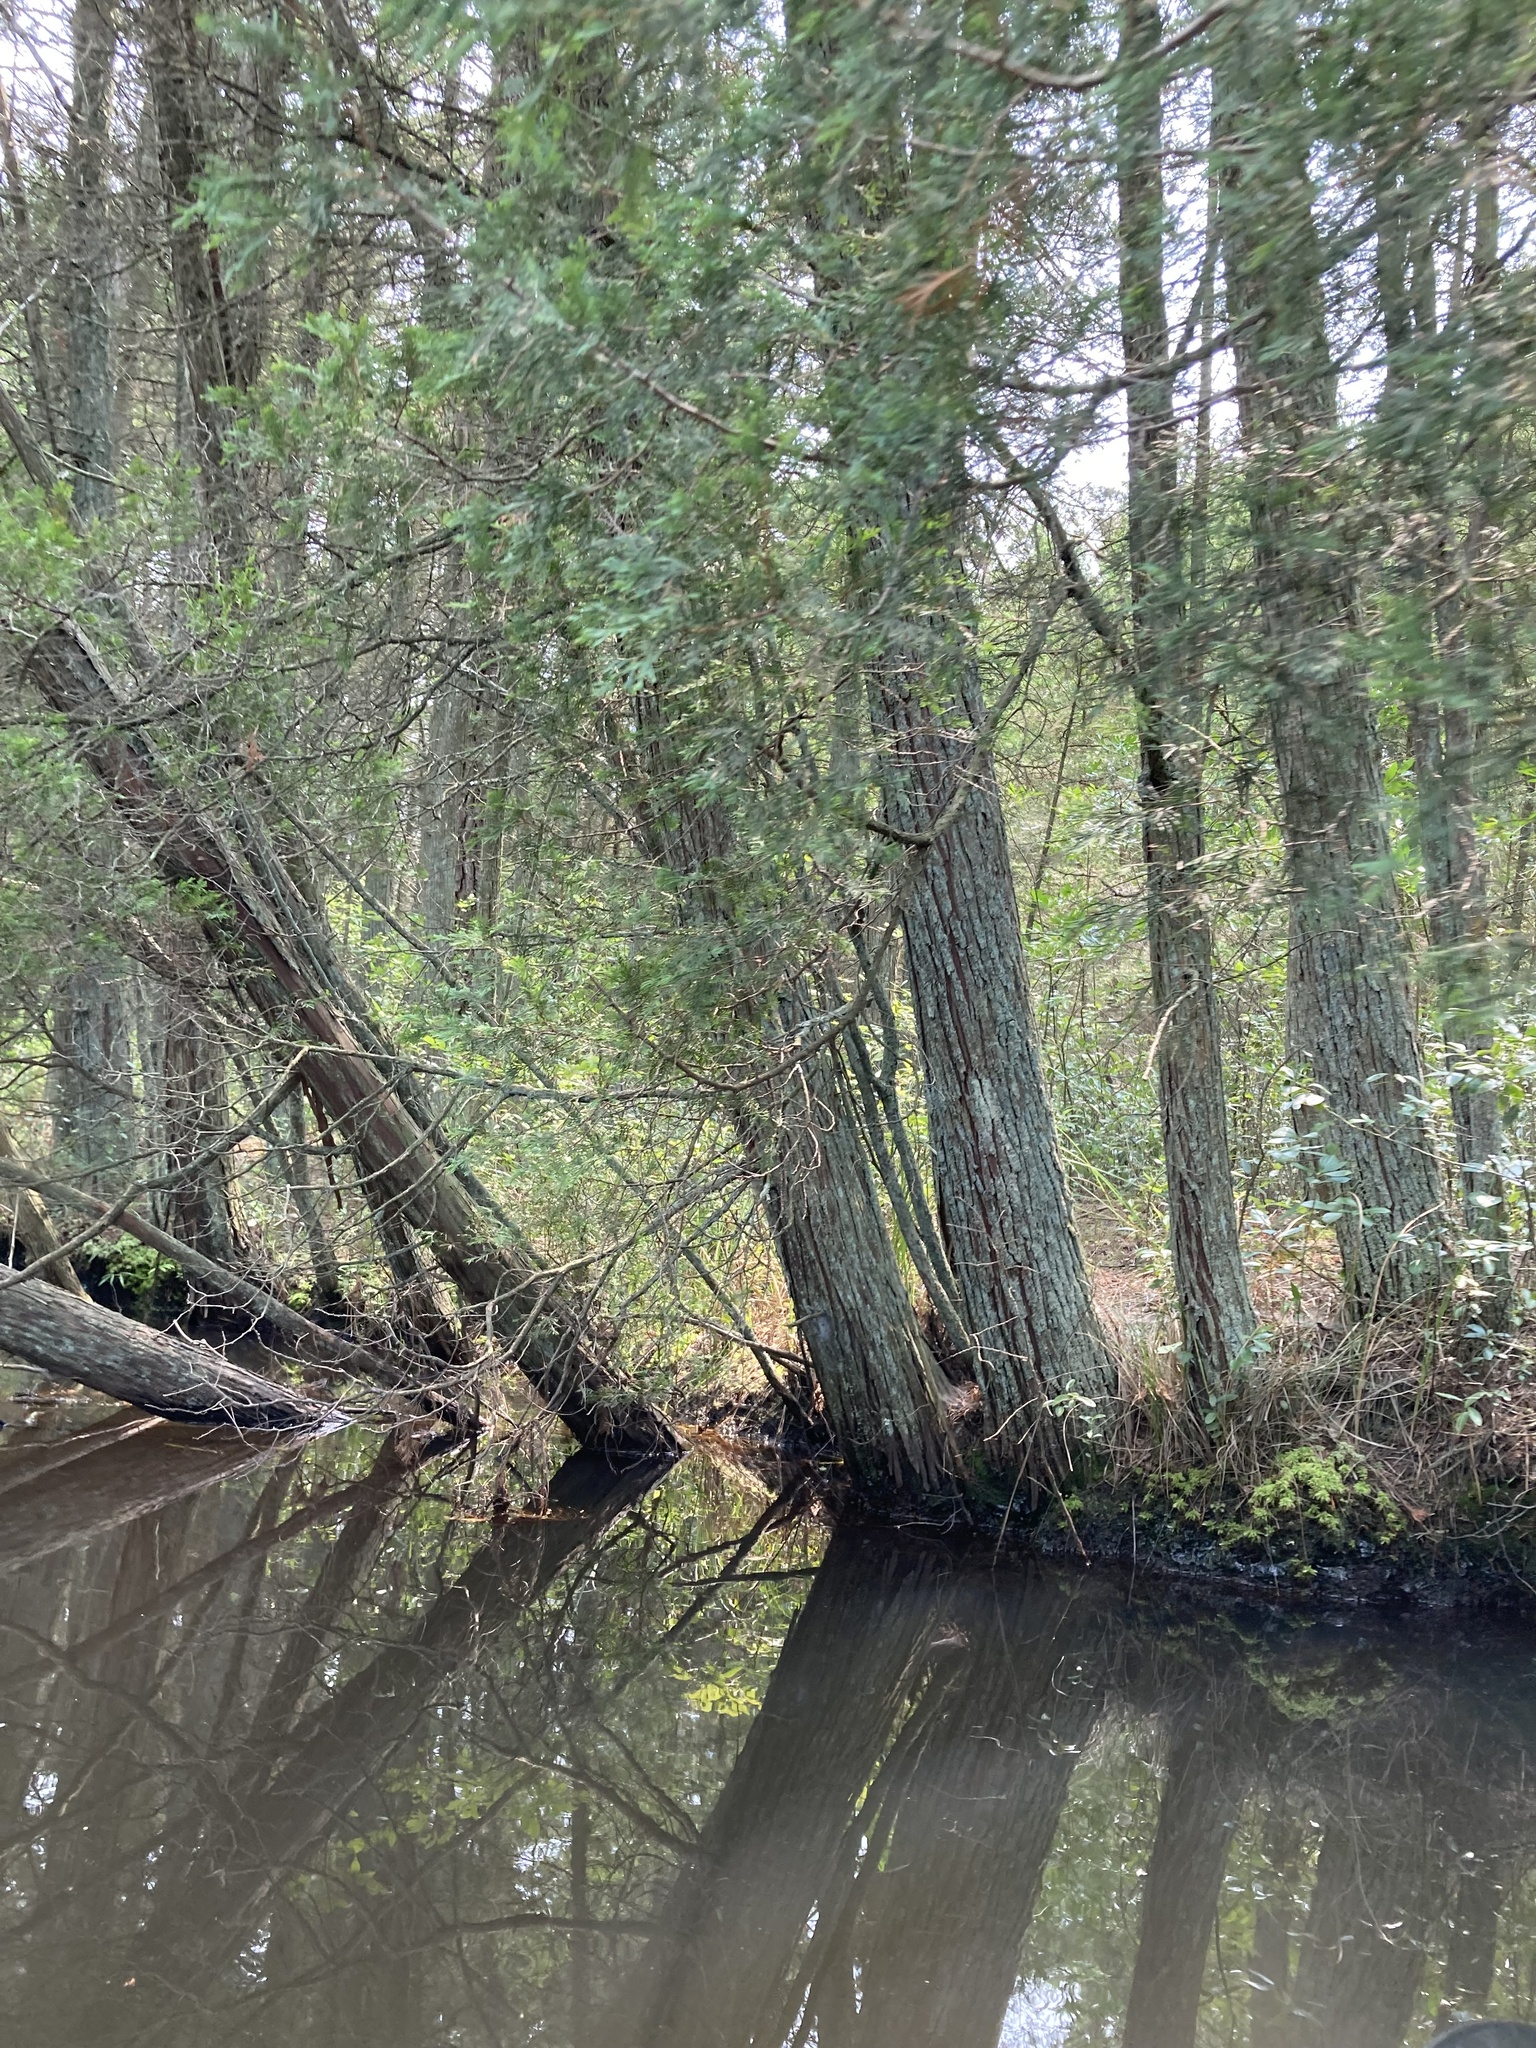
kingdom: Plantae
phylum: Tracheophyta
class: Pinopsida
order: Pinales
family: Cupressaceae
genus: Chamaecyparis
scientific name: Chamaecyparis thyoides
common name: Atlantic white cedar
